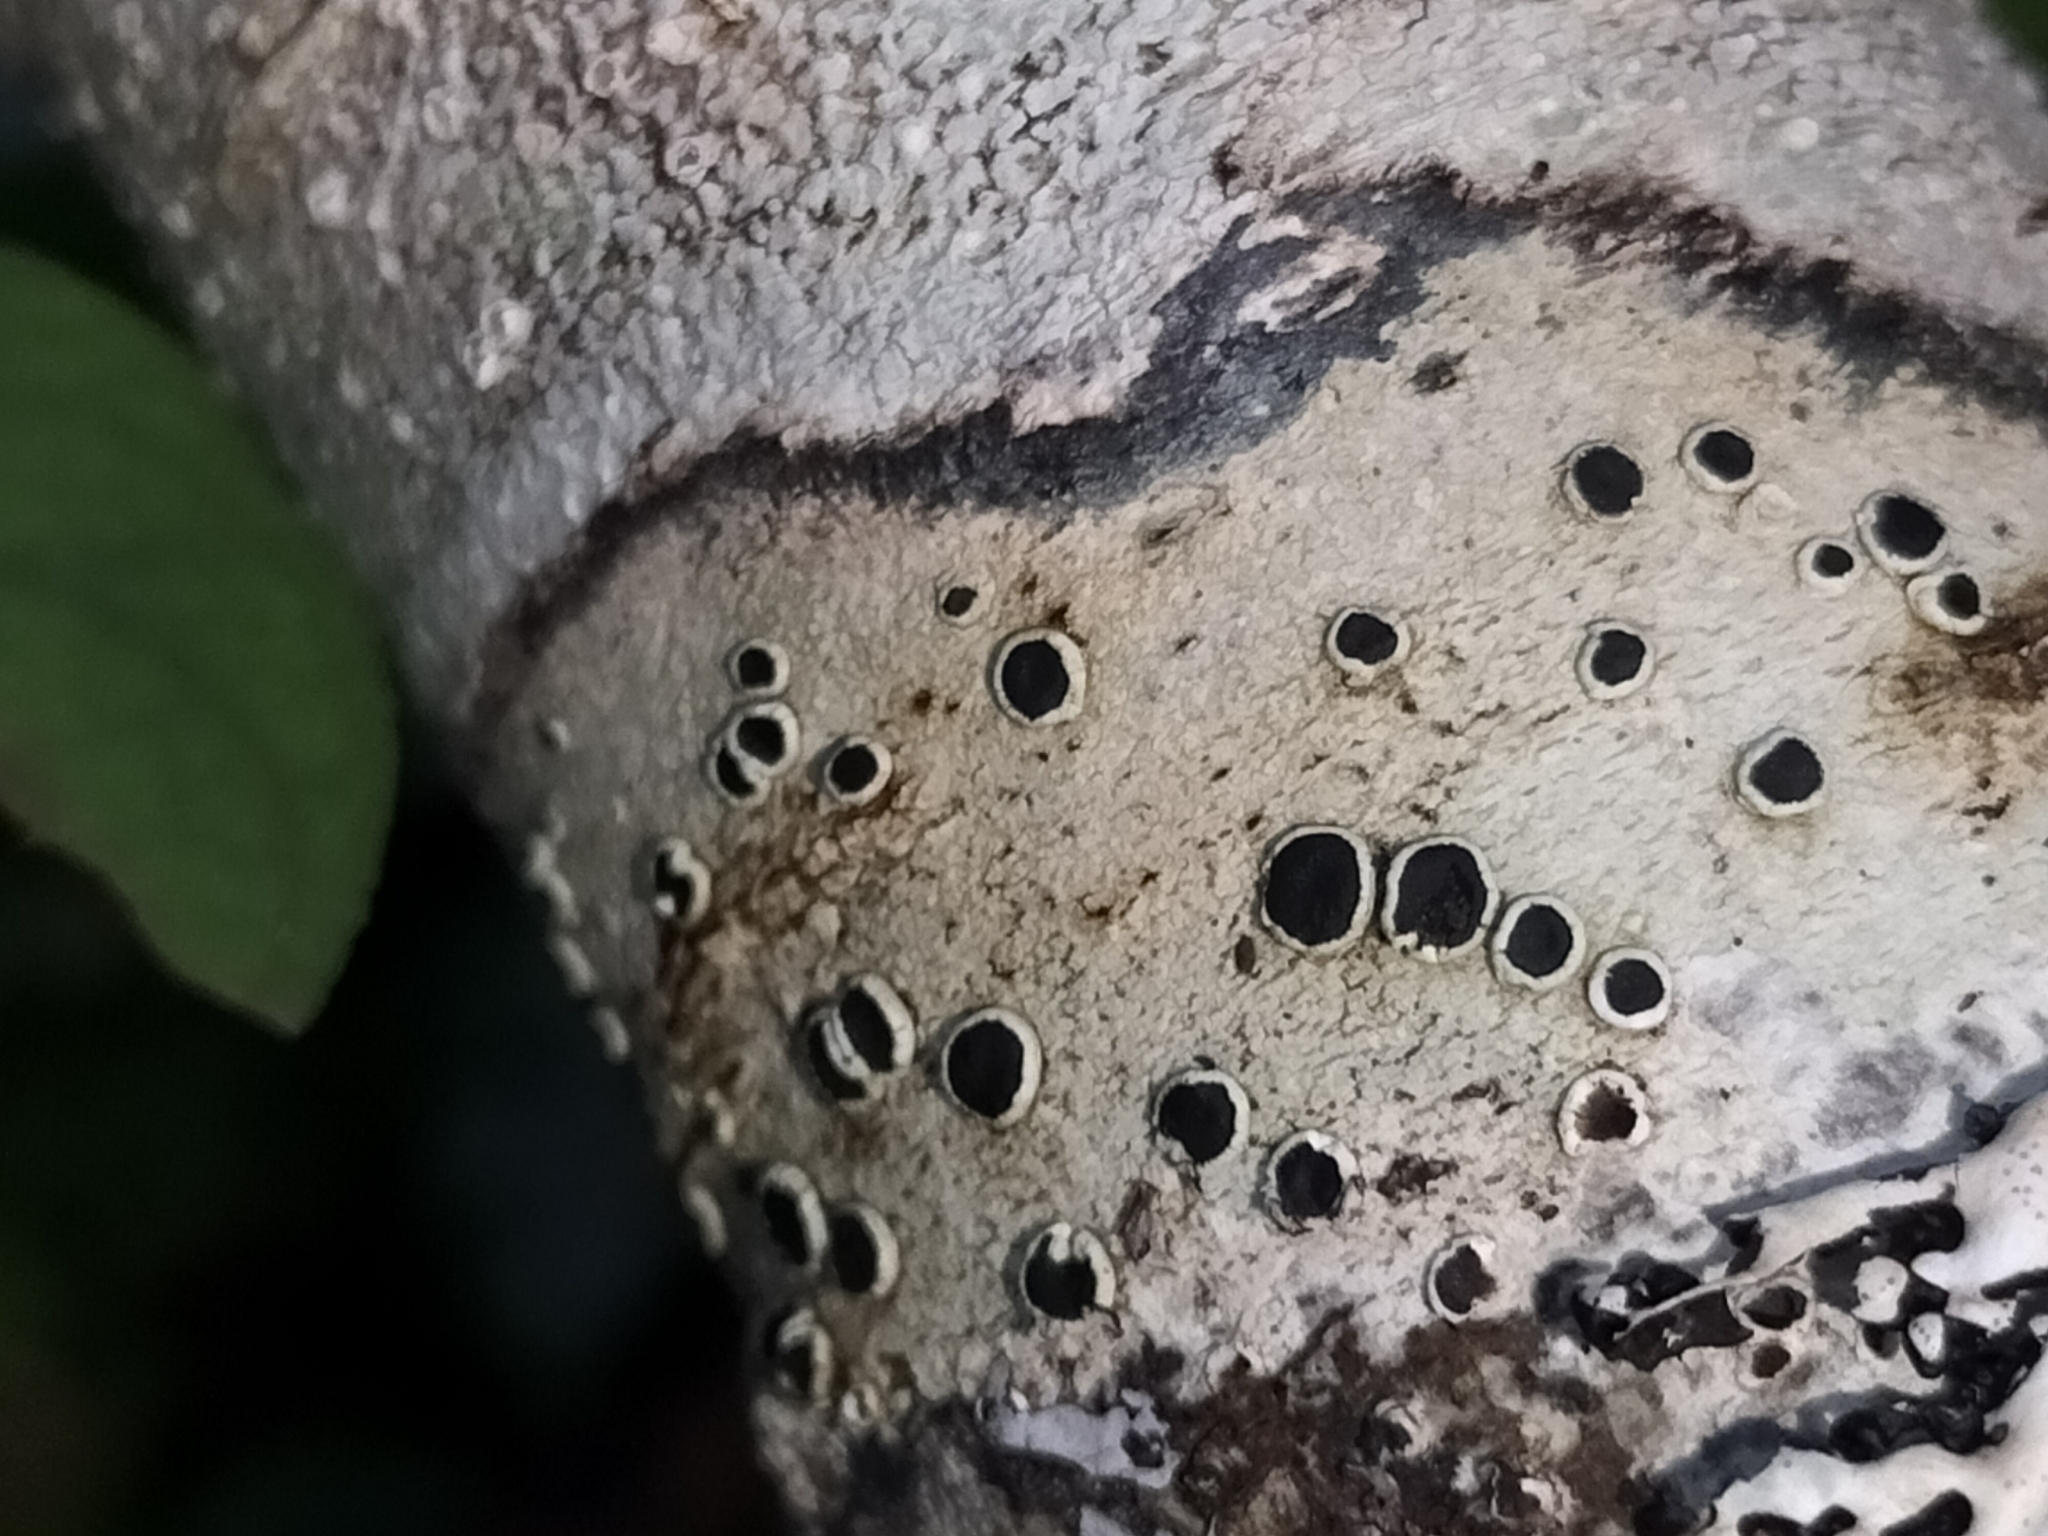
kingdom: Fungi
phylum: Ascomycota
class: Lecanoromycetes
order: Lecanorales
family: Tephromelataceae
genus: Tephromela
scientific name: Tephromela atra
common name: Black shields
